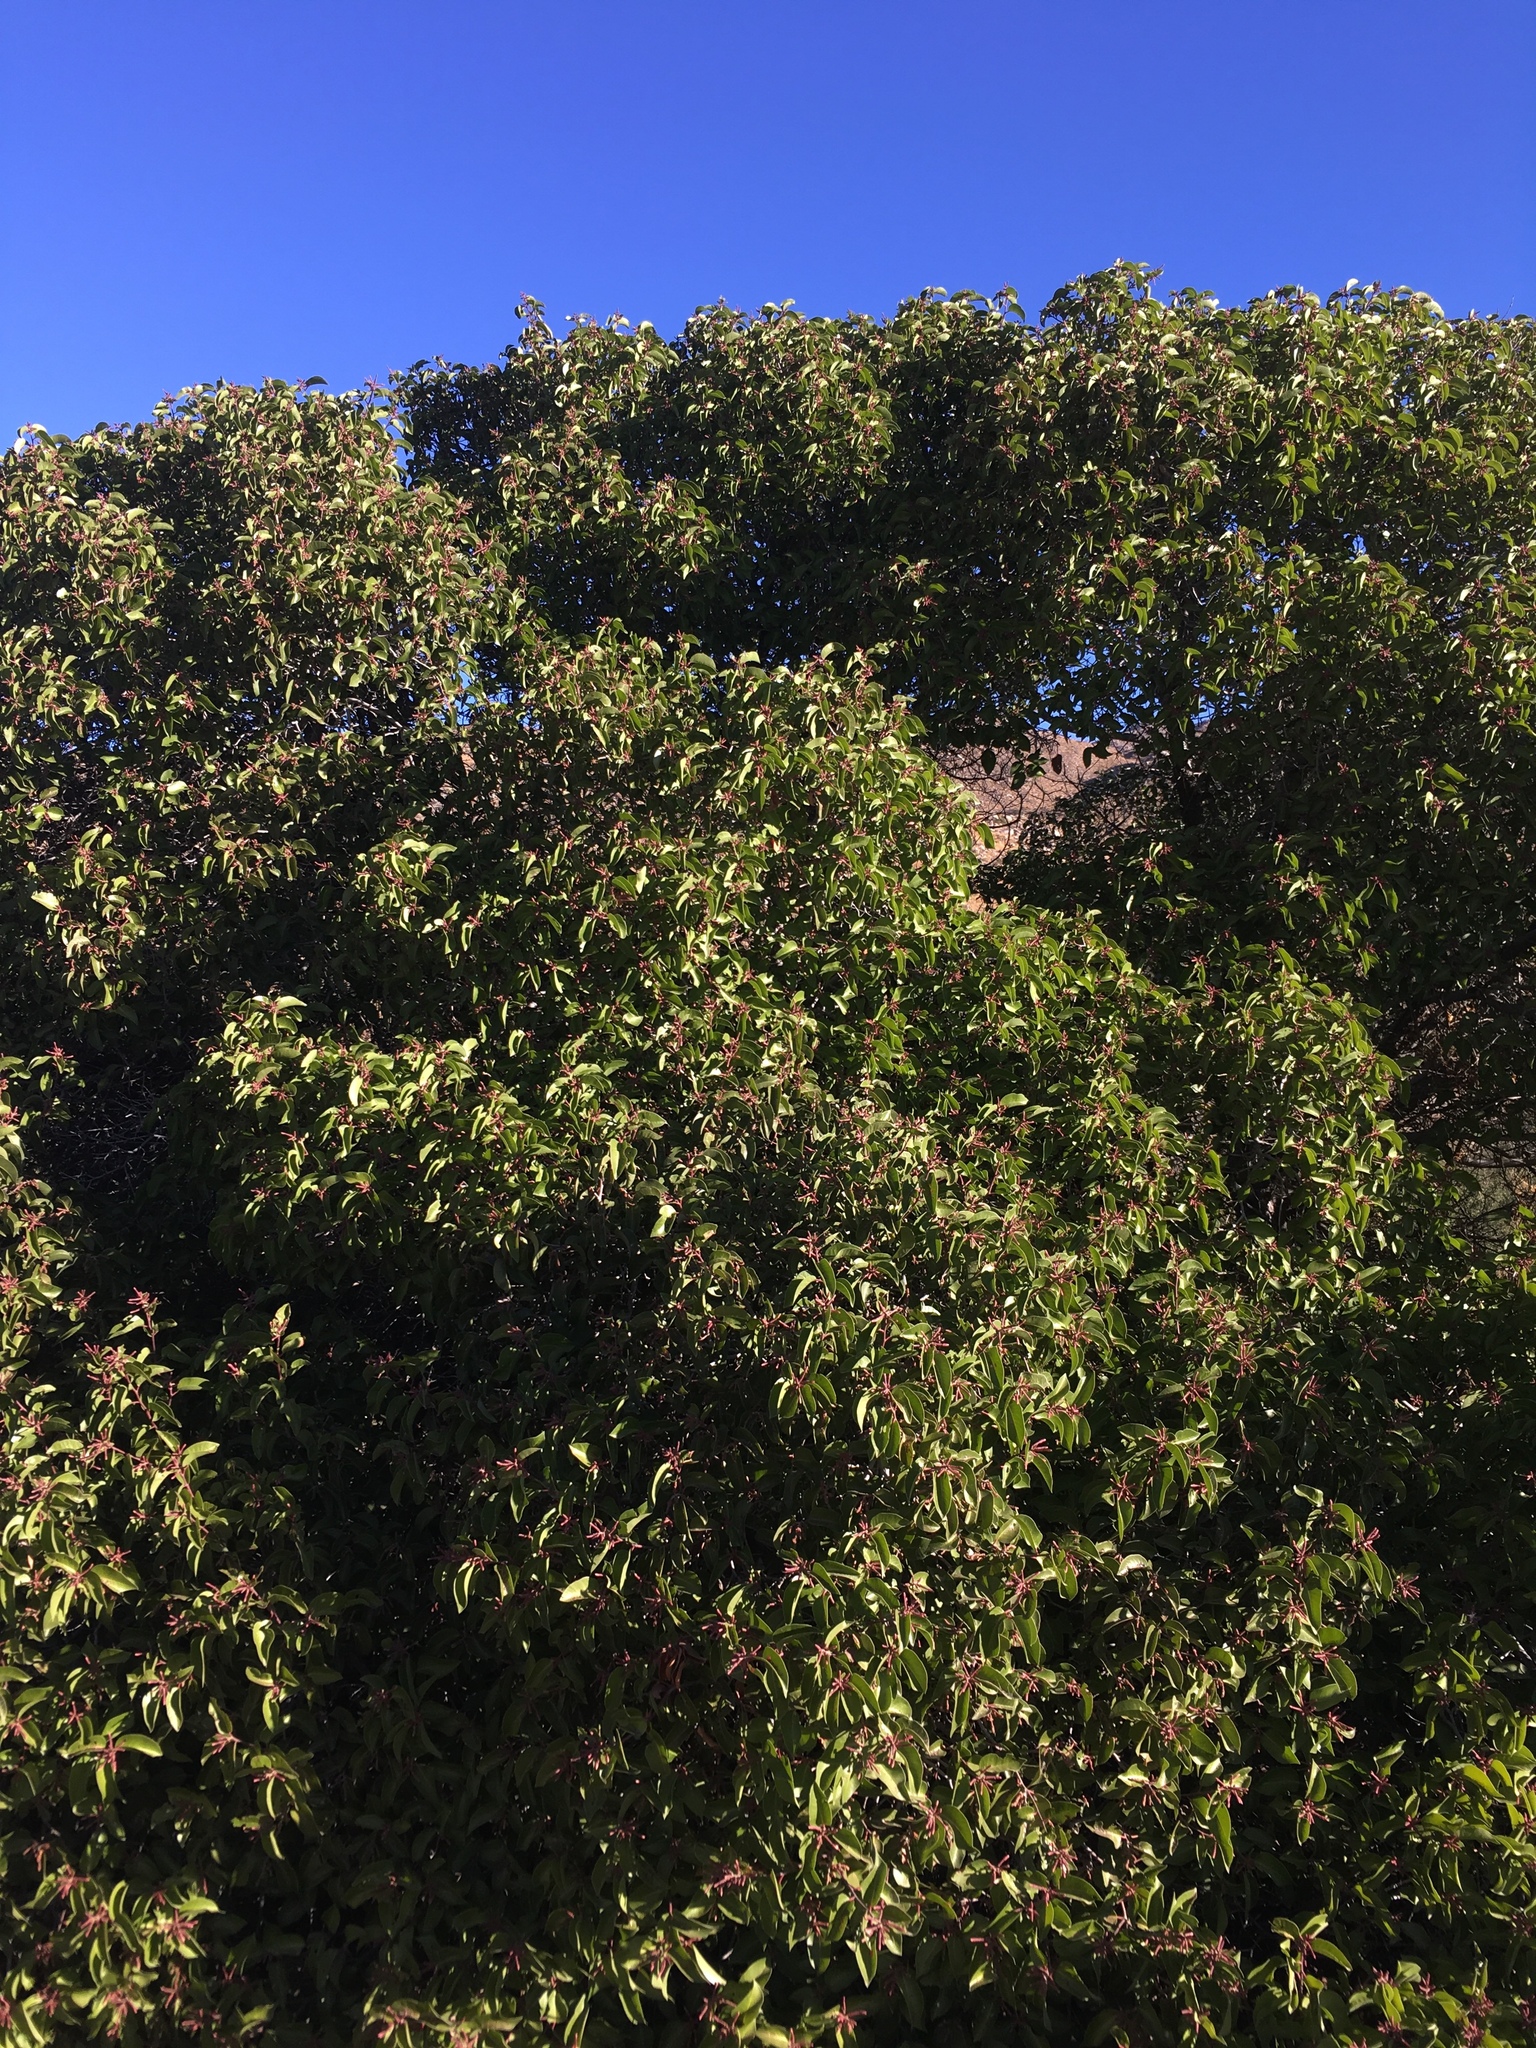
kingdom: Plantae
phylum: Tracheophyta
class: Magnoliopsida
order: Sapindales
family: Anacardiaceae
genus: Rhus
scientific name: Rhus ovata
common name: Sugar sumac
